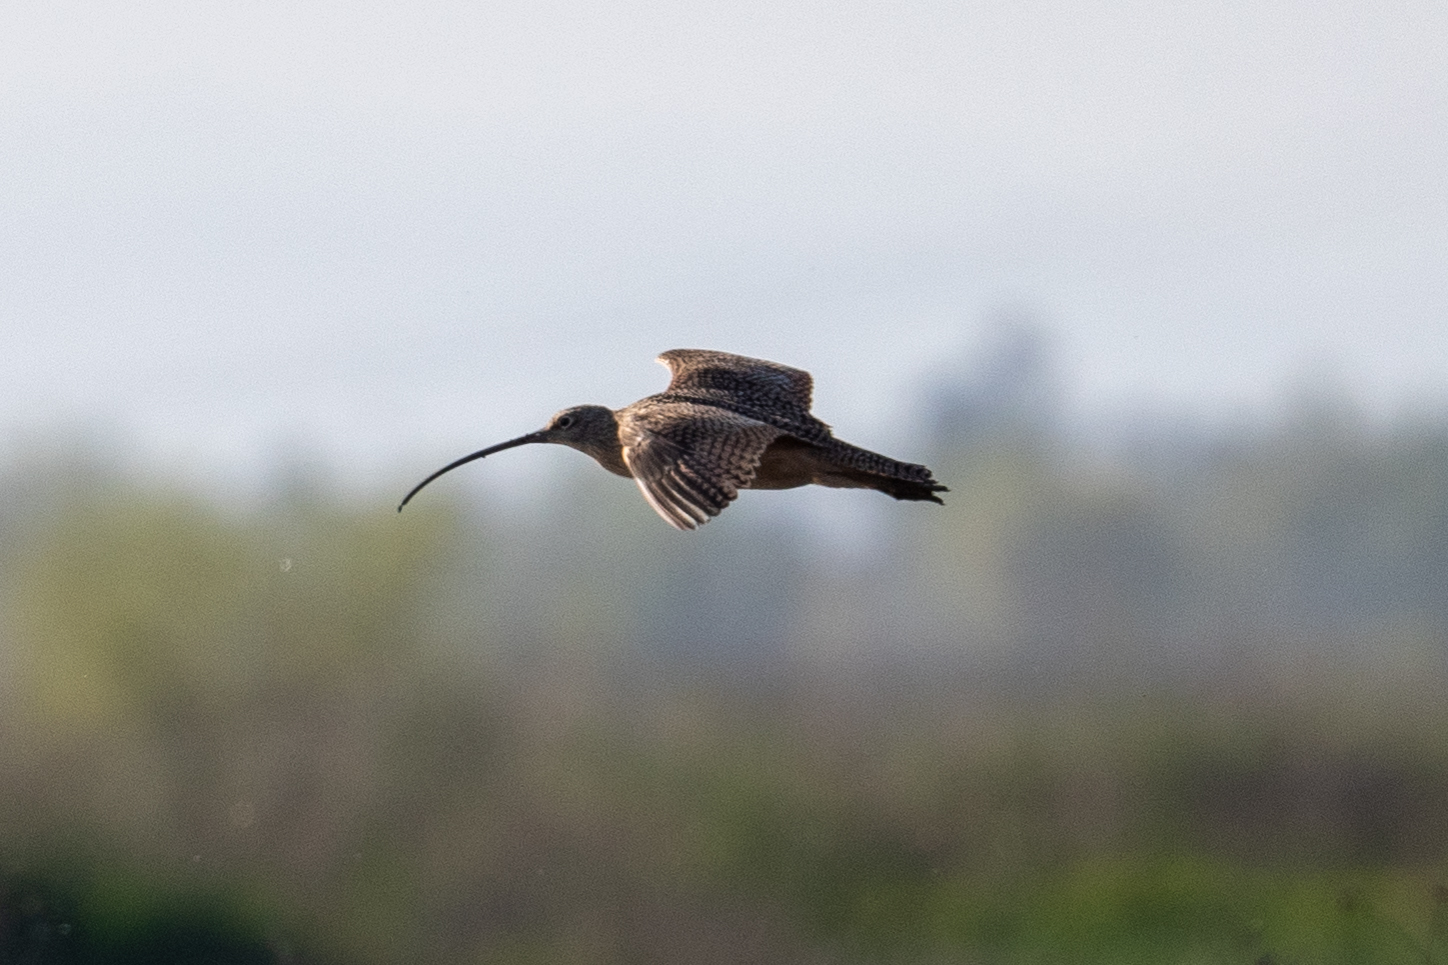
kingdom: Animalia
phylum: Chordata
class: Aves
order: Charadriiformes
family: Scolopacidae
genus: Numenius
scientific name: Numenius americanus
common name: Long-billed curlew
